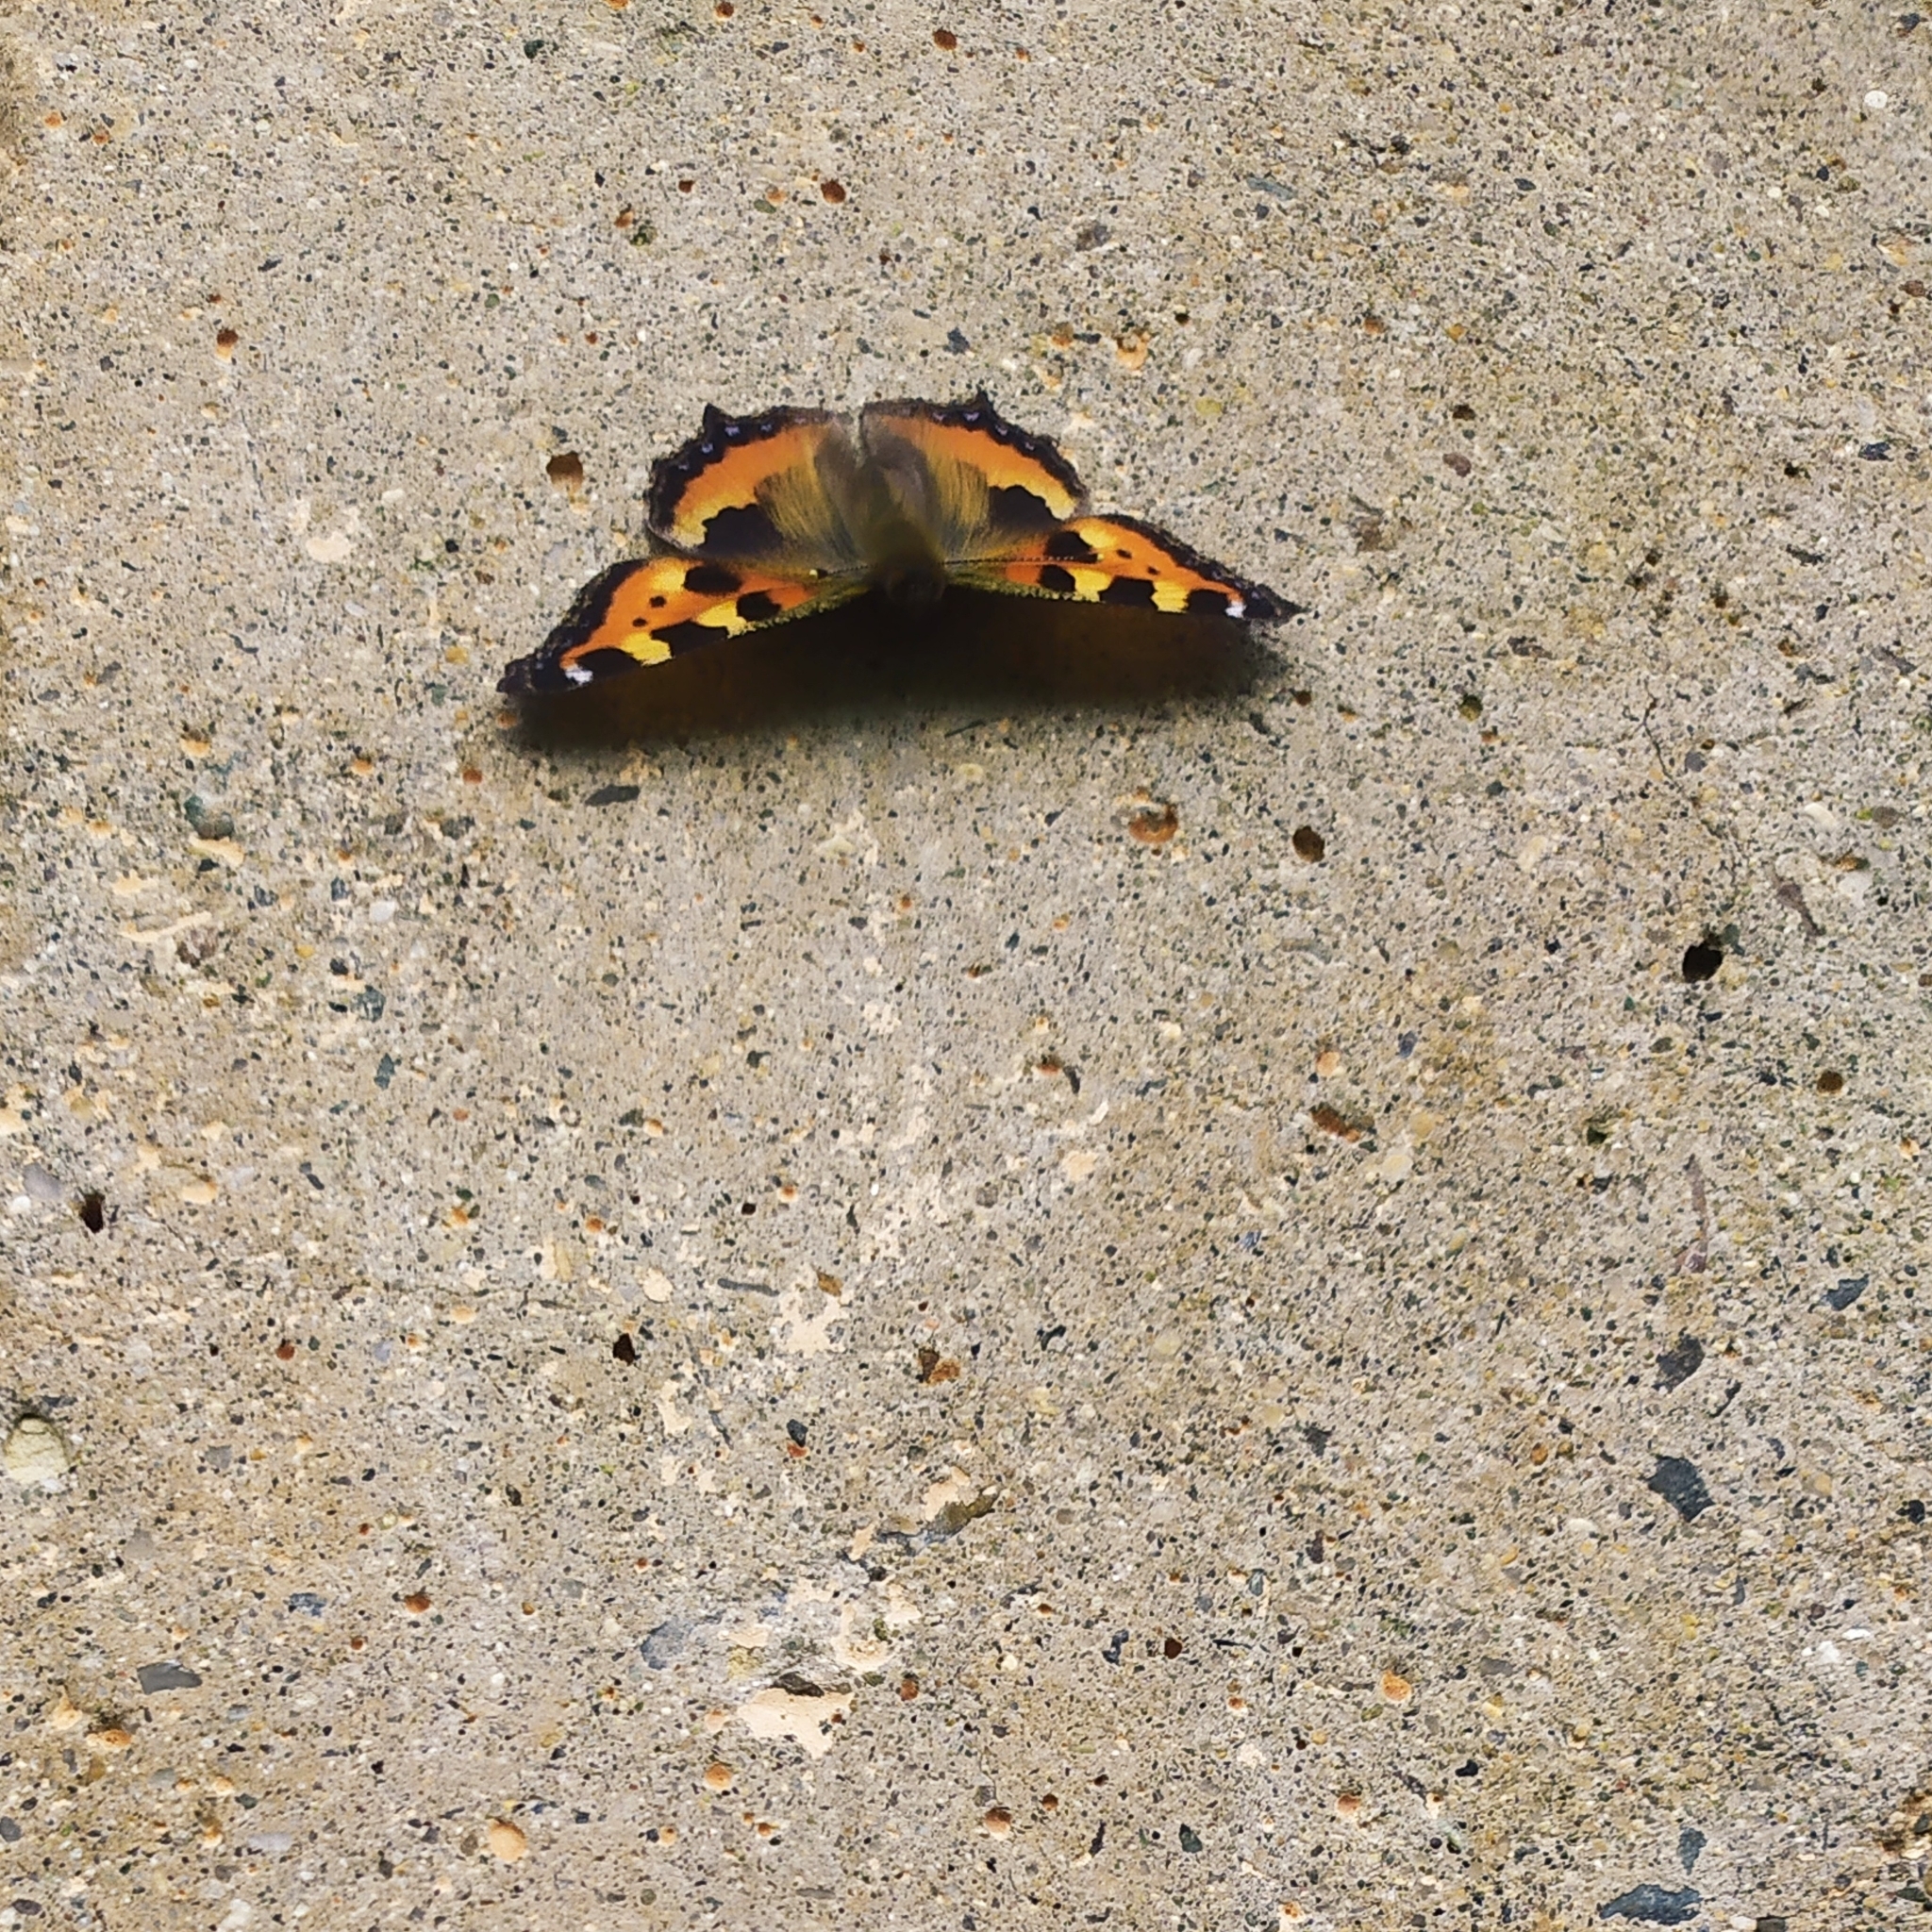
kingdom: Animalia
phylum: Arthropoda
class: Insecta
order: Lepidoptera
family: Nymphalidae
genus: Aglais
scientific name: Aglais urticae
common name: Small tortoiseshell
